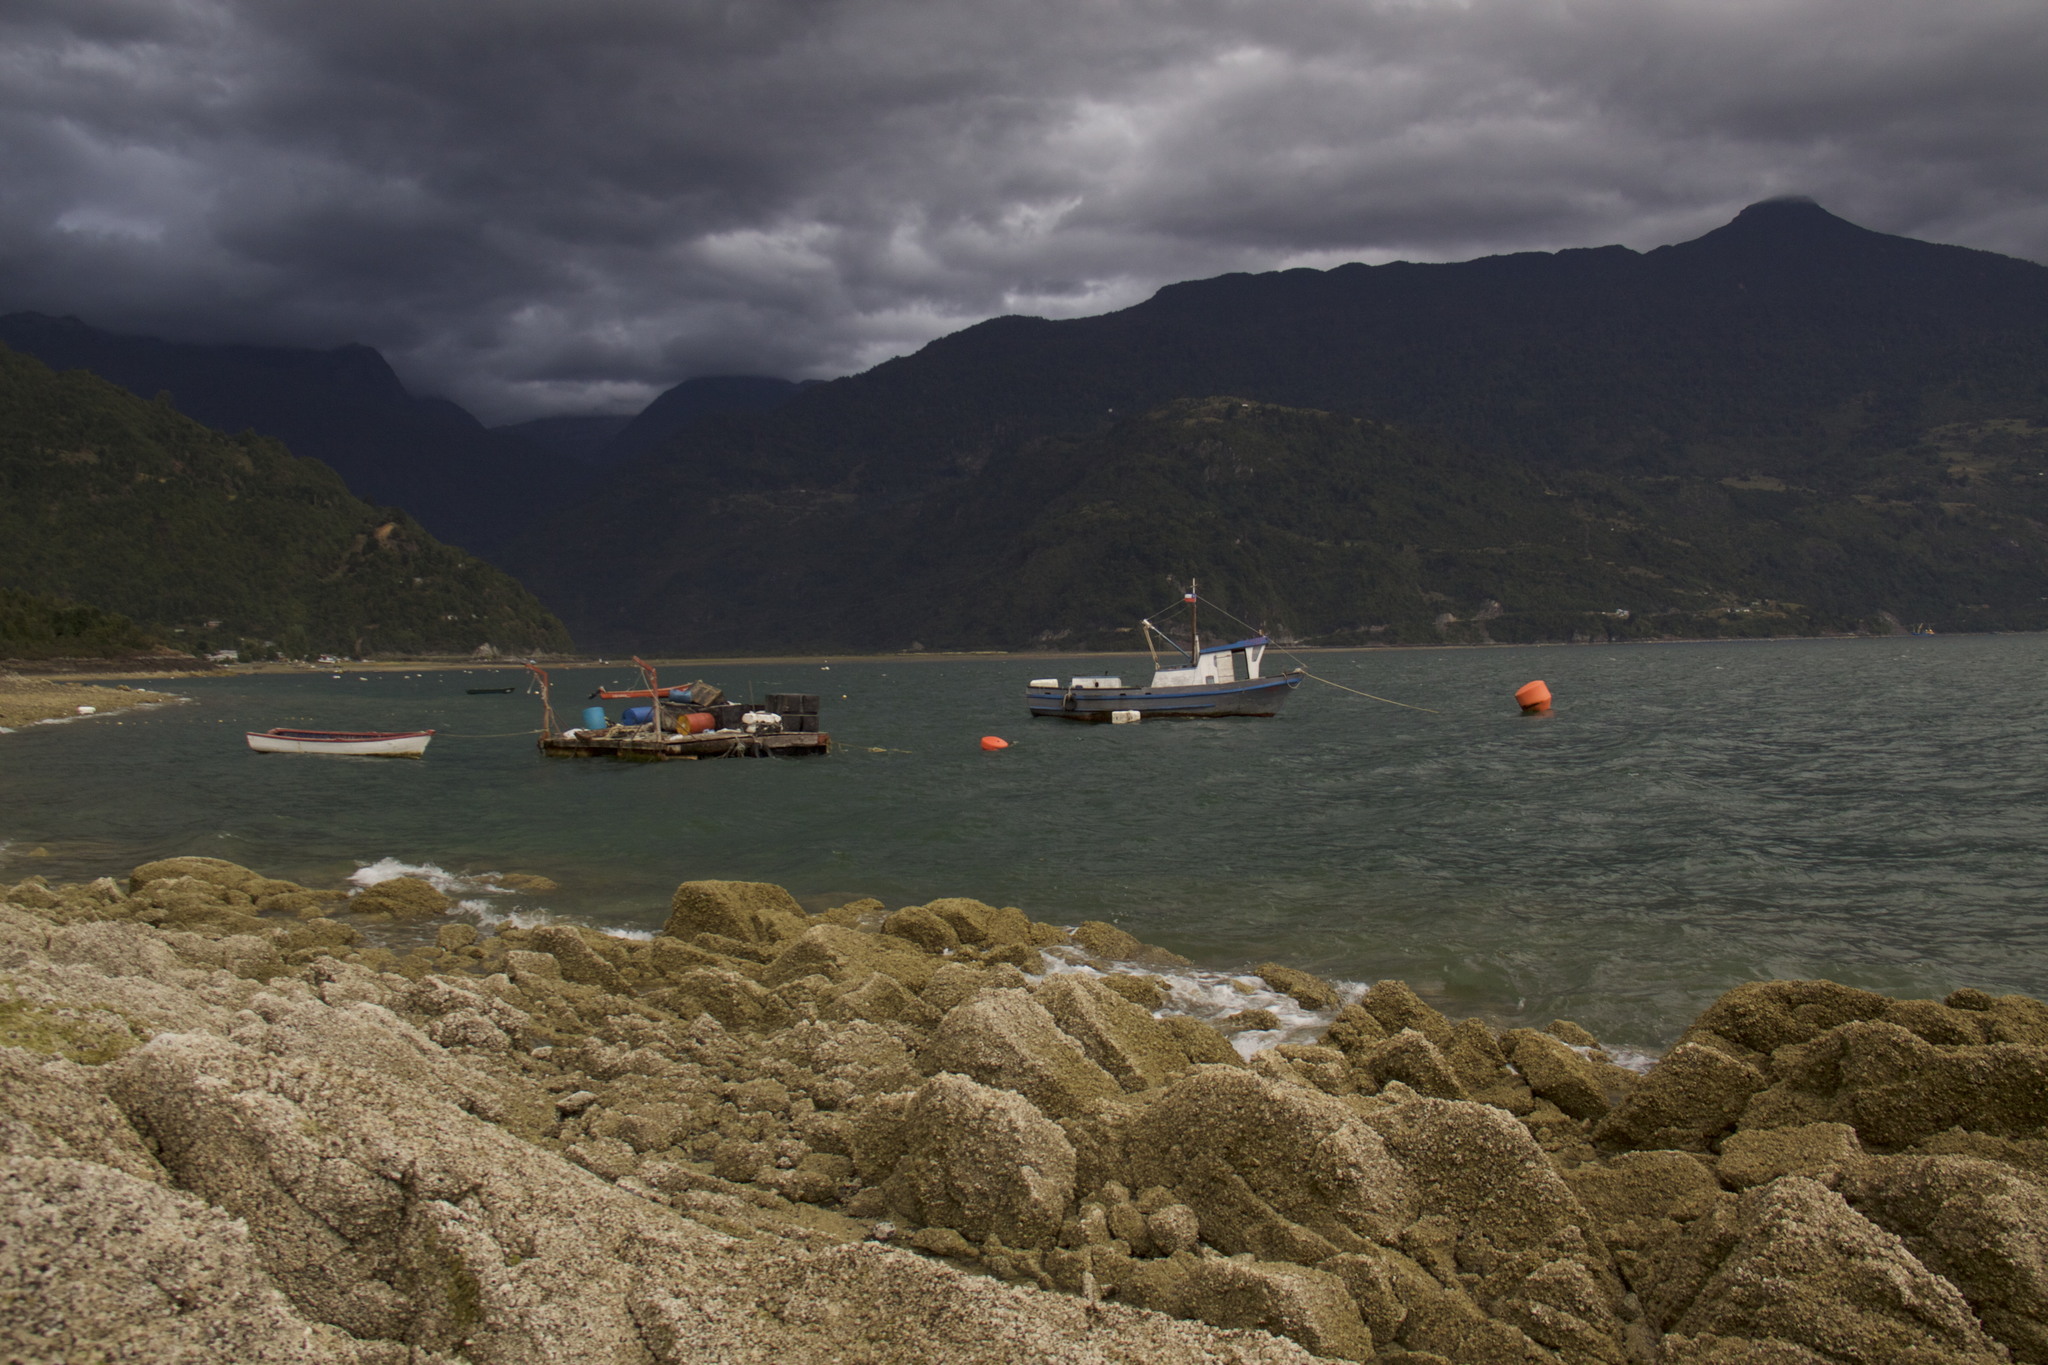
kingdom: Animalia
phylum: Arthropoda
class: Maxillopoda
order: Sessilia
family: Balanidae
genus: Elminius
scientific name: Elminius kingii
